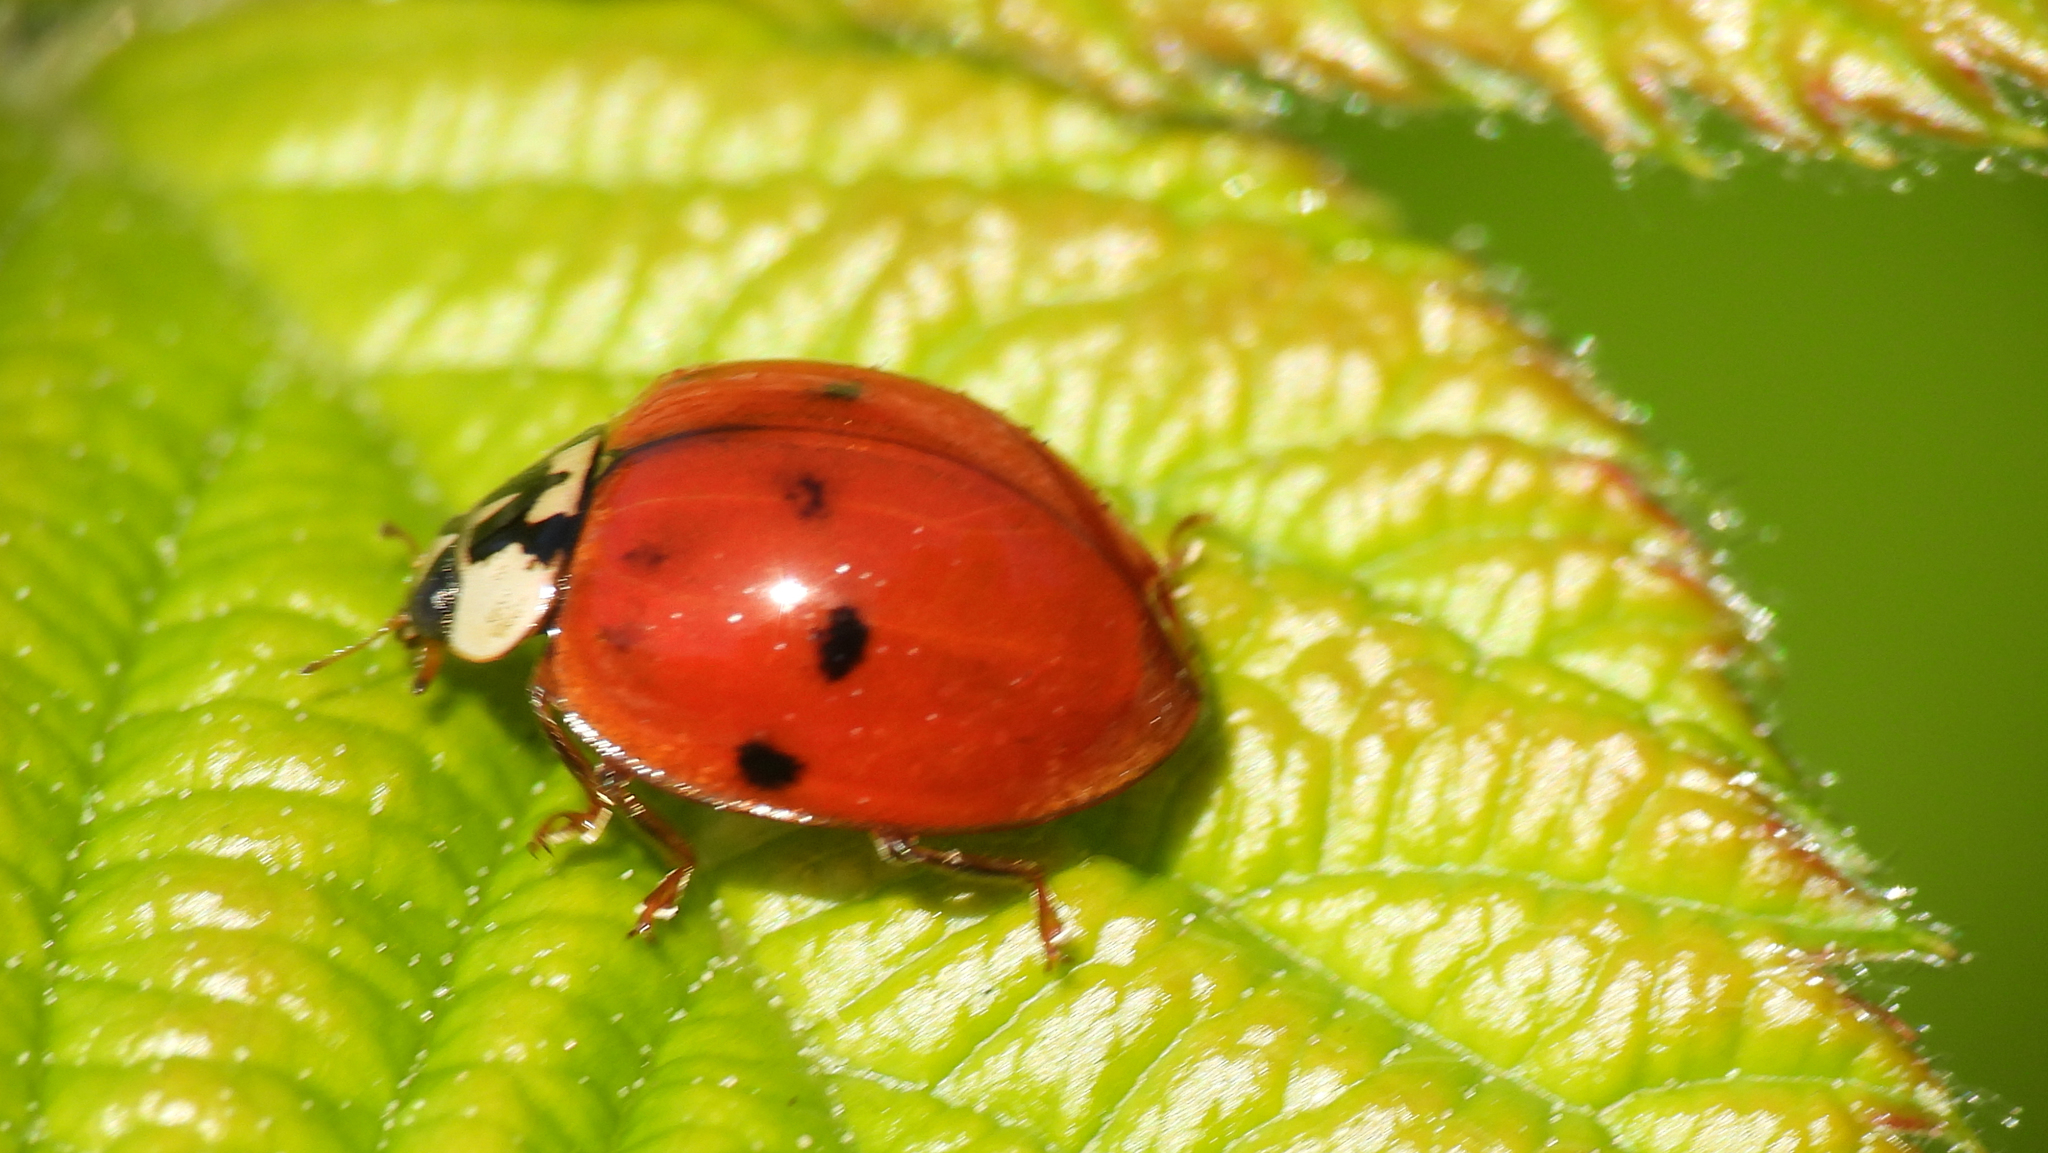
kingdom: Animalia
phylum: Arthropoda
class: Insecta
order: Coleoptera
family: Coccinellidae
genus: Harmonia
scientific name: Harmonia axyridis
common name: Harlequin ladybird
